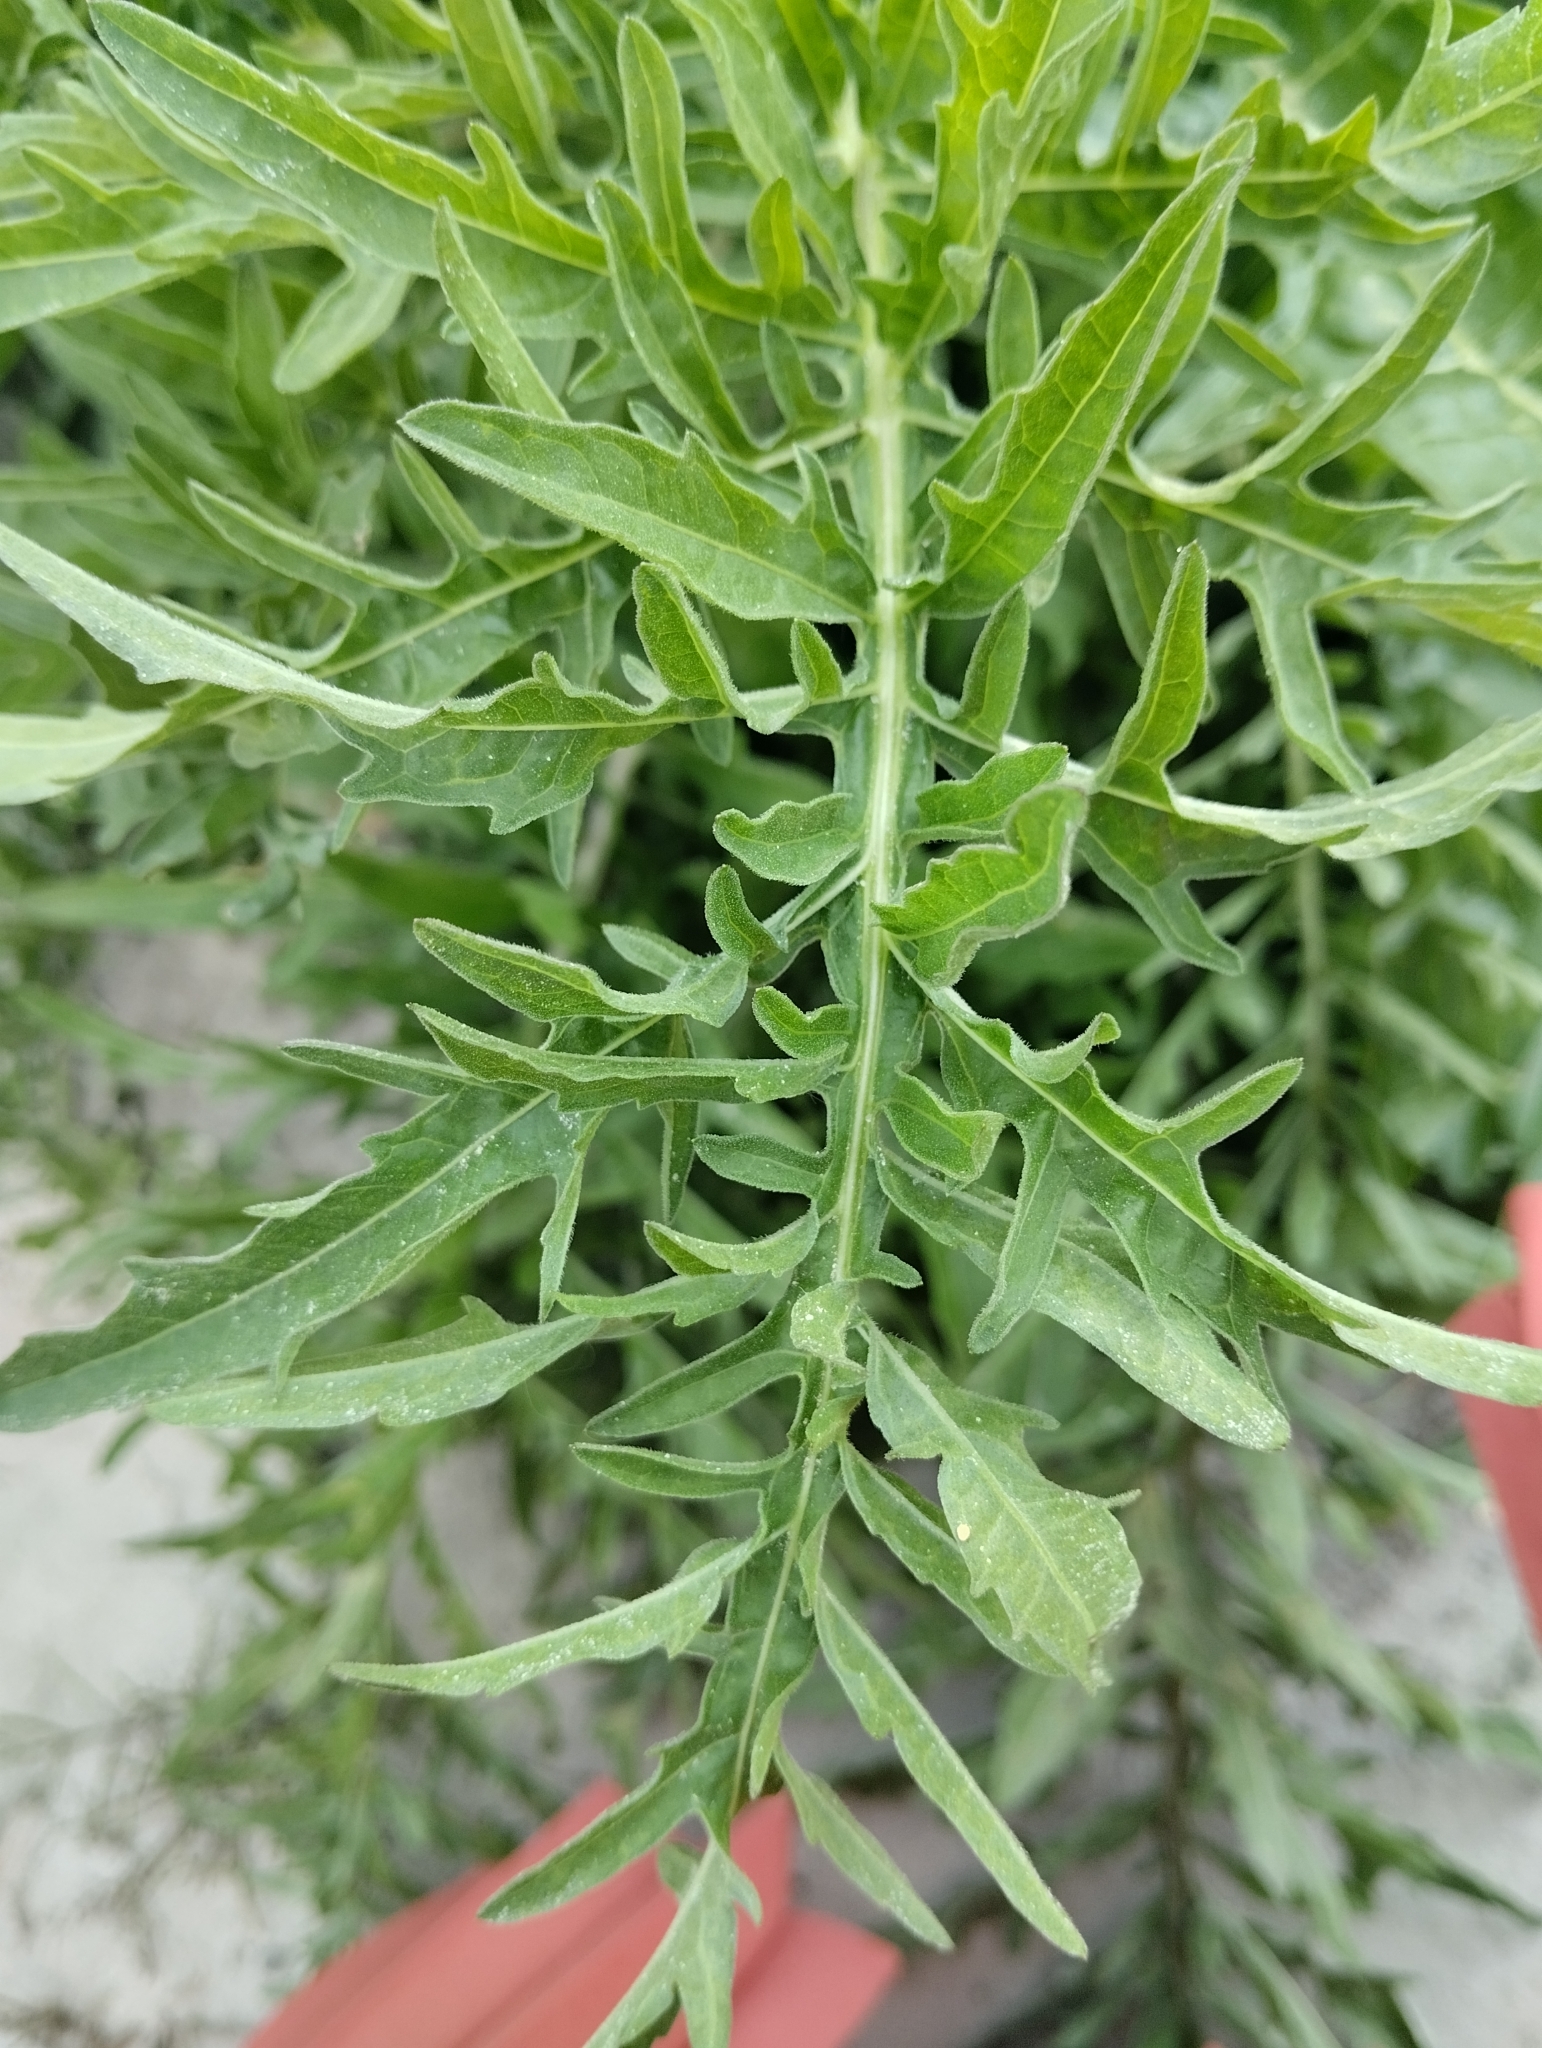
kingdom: Plantae
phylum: Tracheophyta
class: Magnoliopsida
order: Asterales
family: Asteraceae
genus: Centaurea
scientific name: Centaurea scabiosa
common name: Greater knapweed
